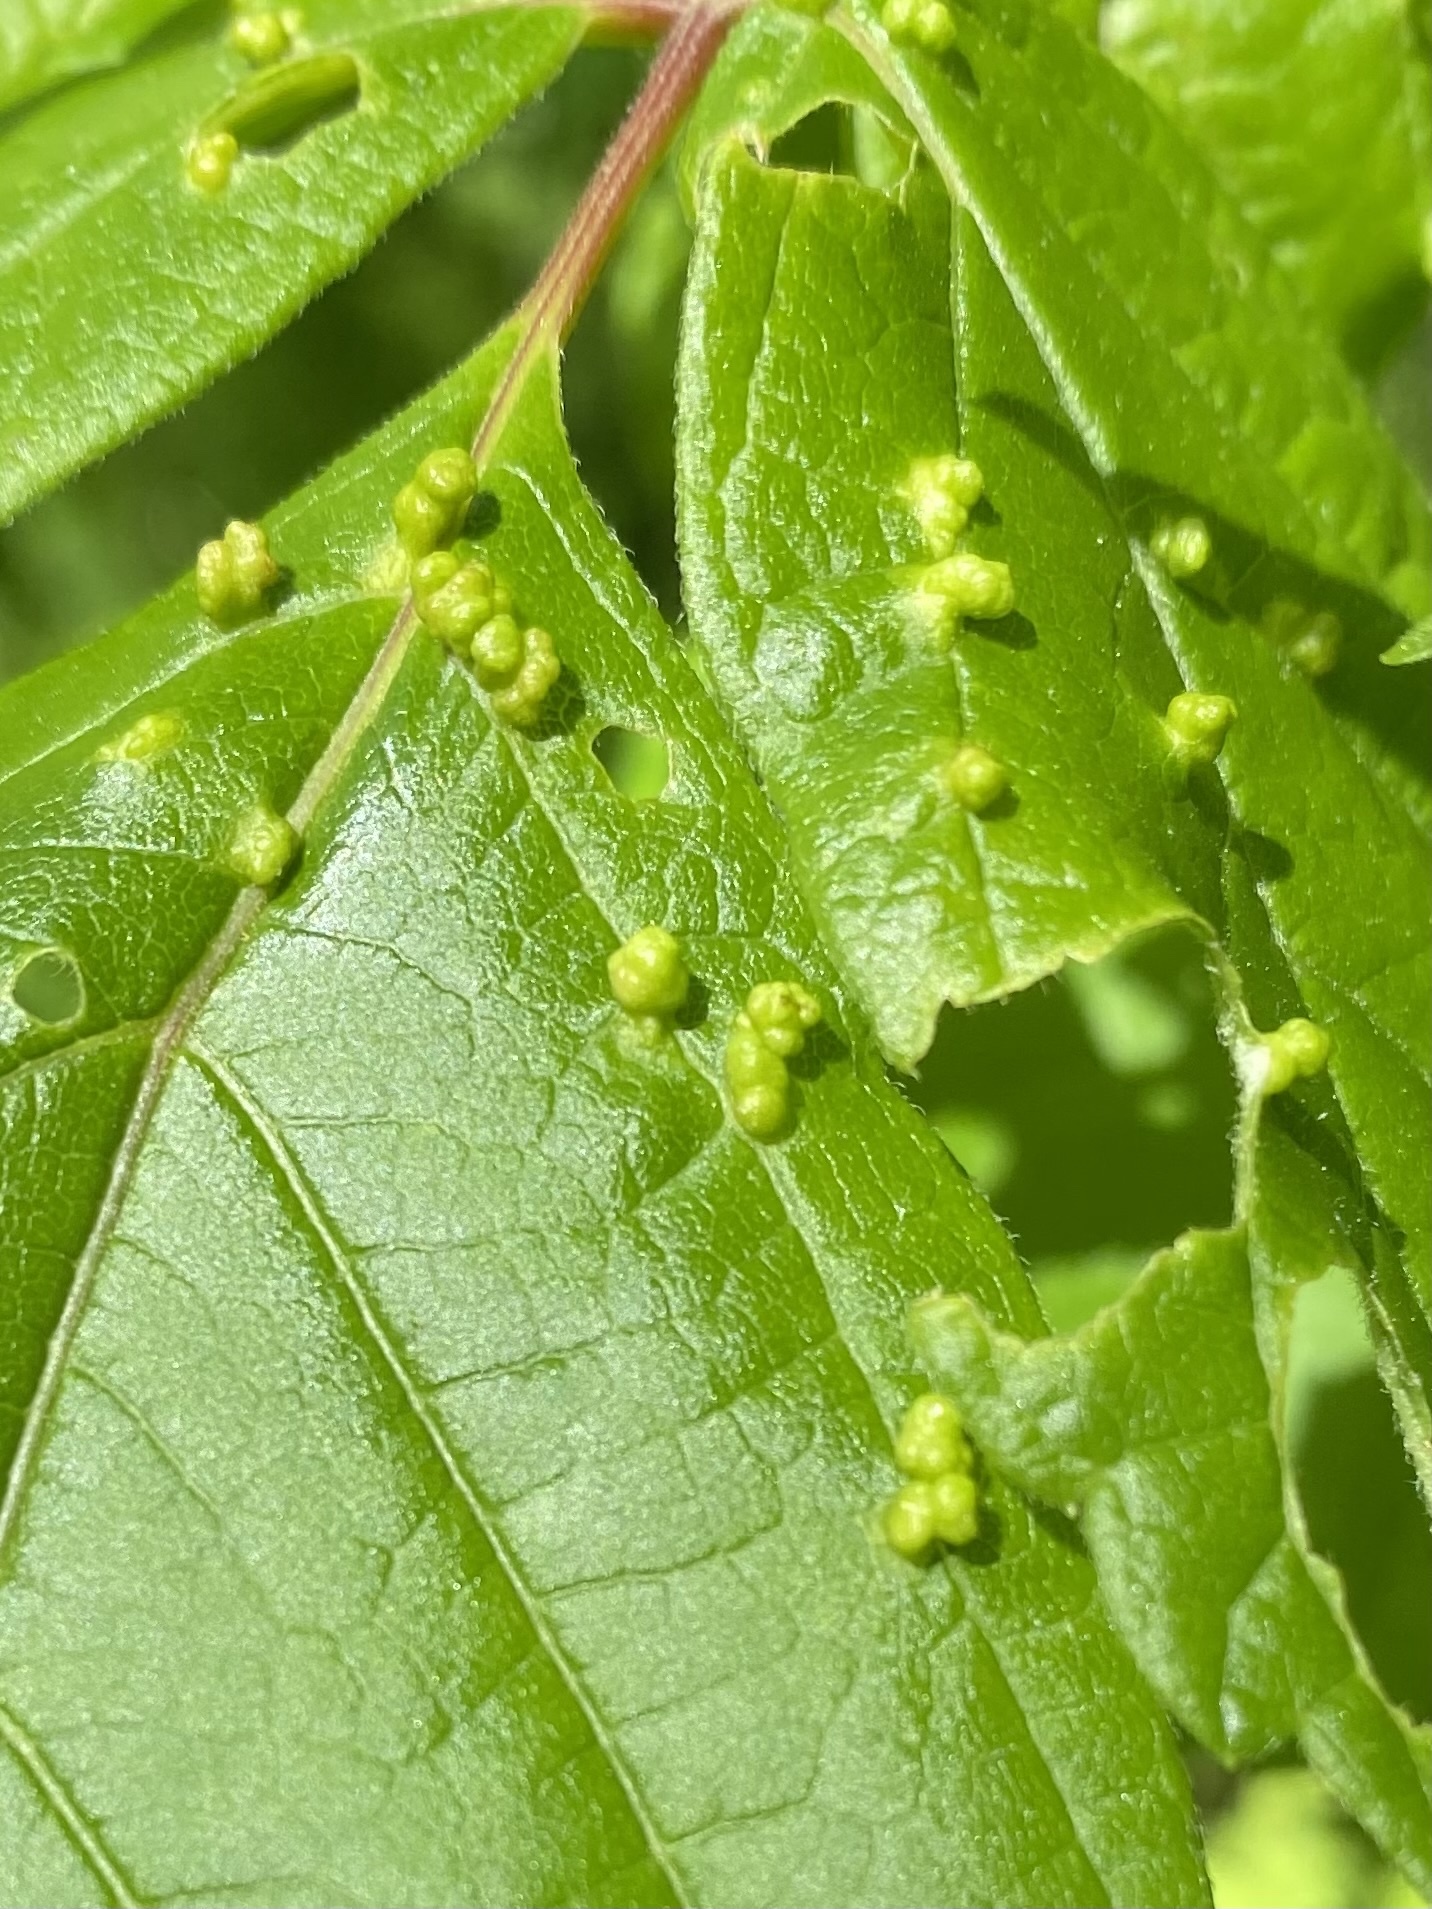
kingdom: Animalia
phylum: Arthropoda
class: Arachnida
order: Trombidiformes
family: Eriophyidae
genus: Aceria
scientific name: Aceria
